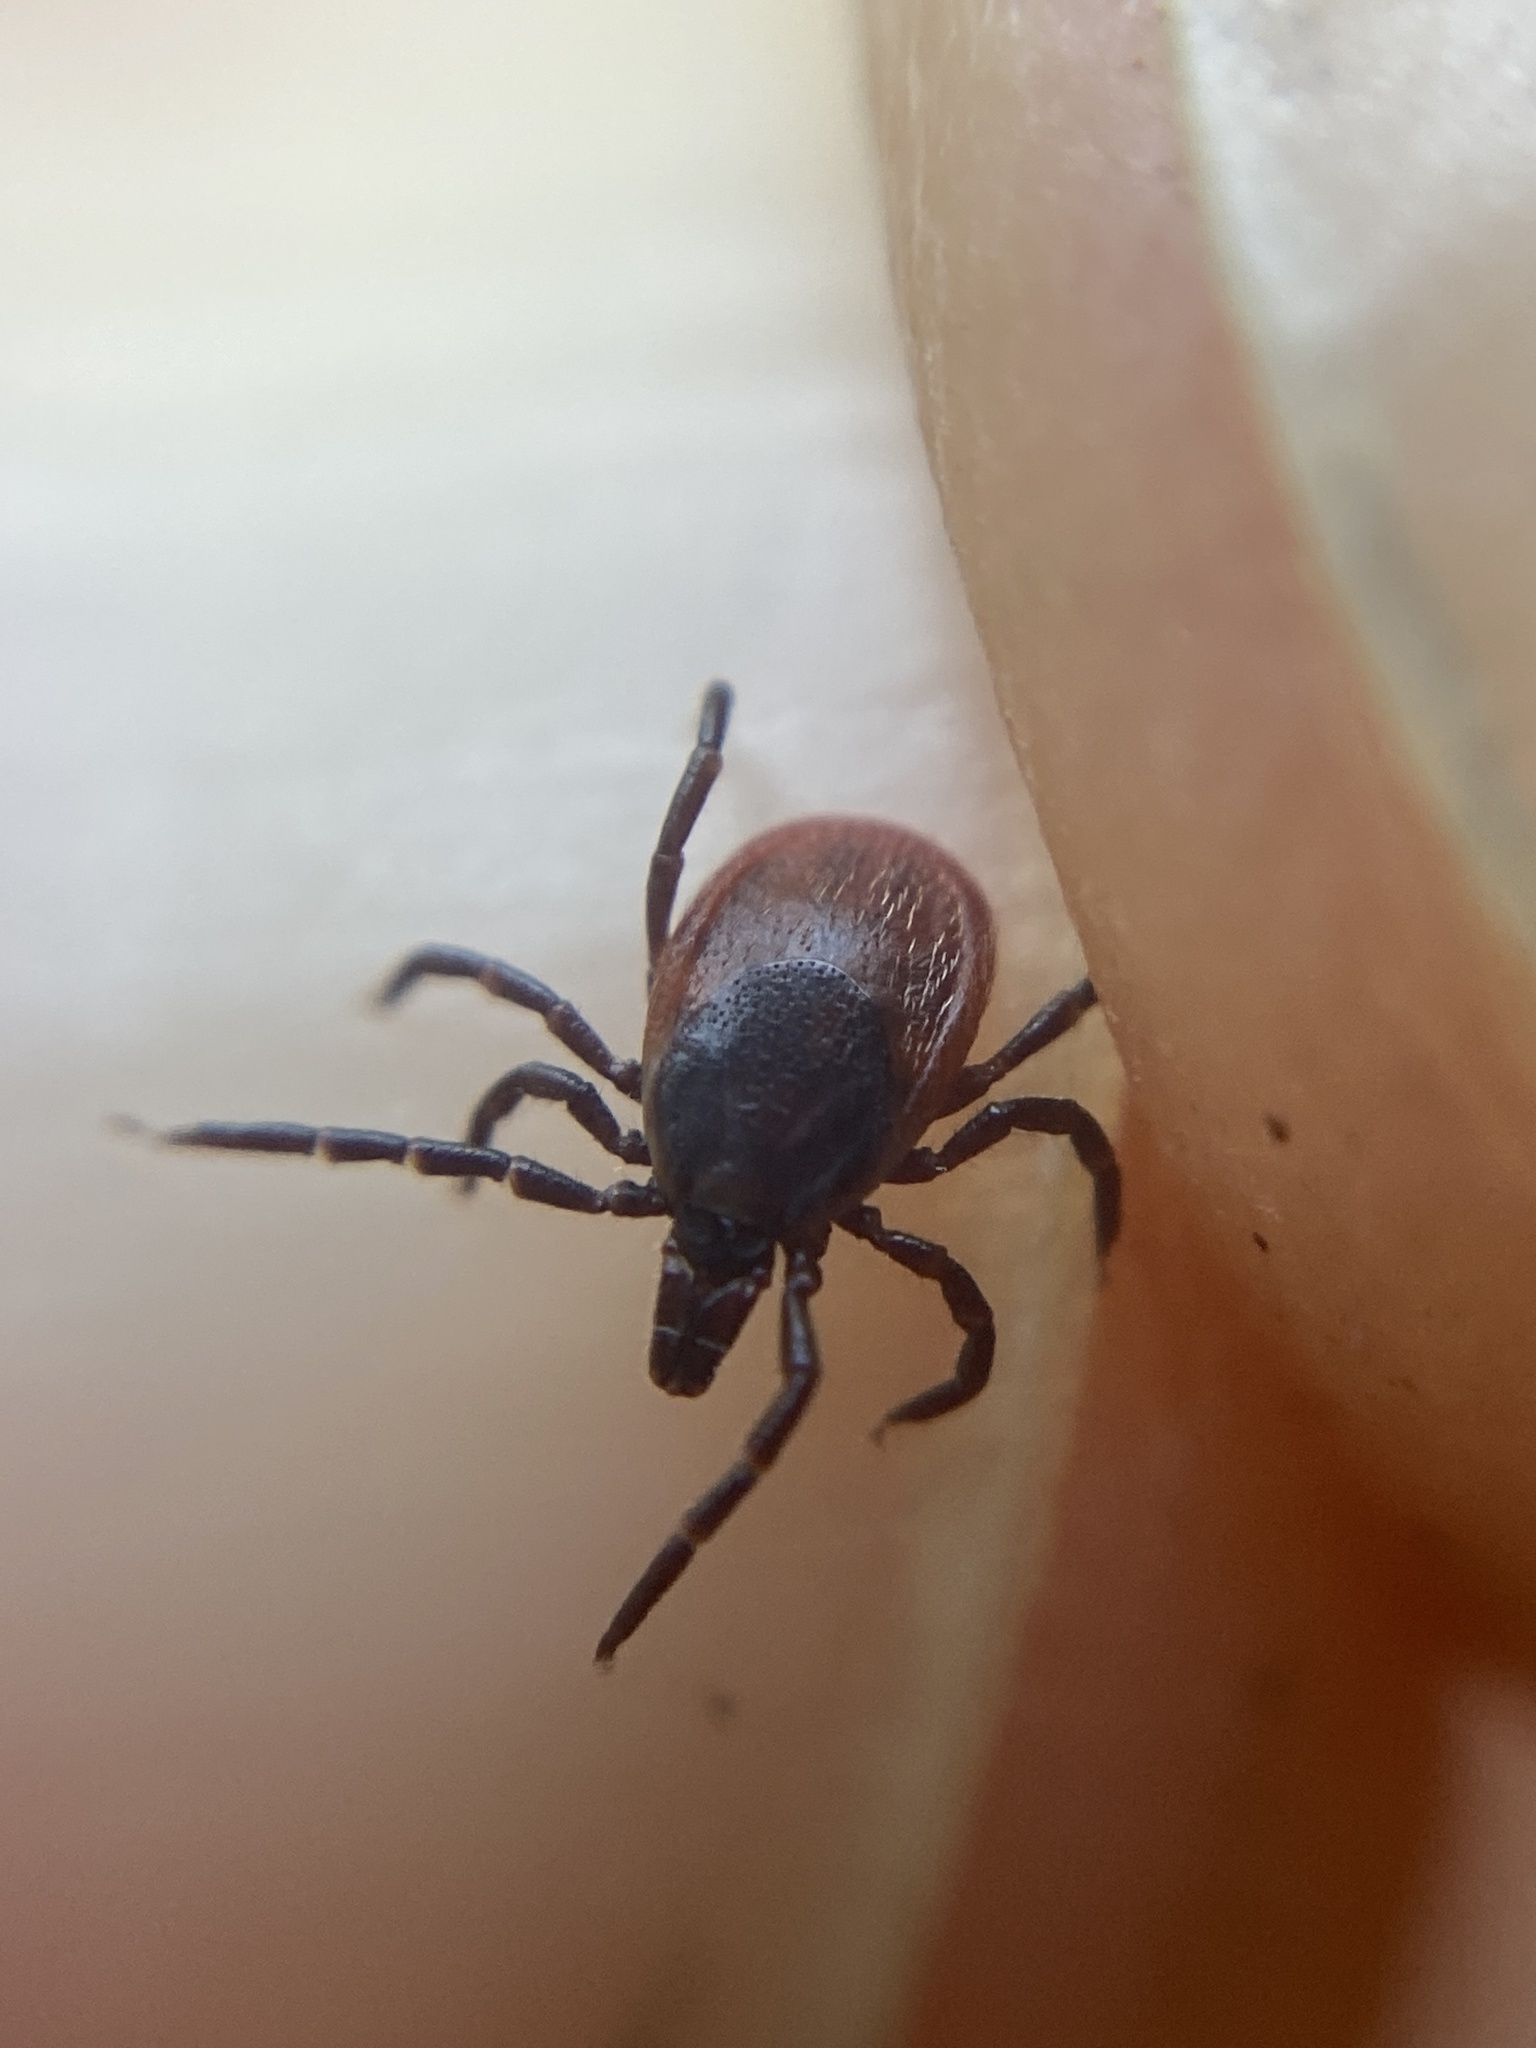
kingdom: Animalia
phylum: Arthropoda
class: Arachnida
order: Ixodida
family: Ixodidae
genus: Ixodes
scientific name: Ixodes ricinus
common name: Castor bean tick
